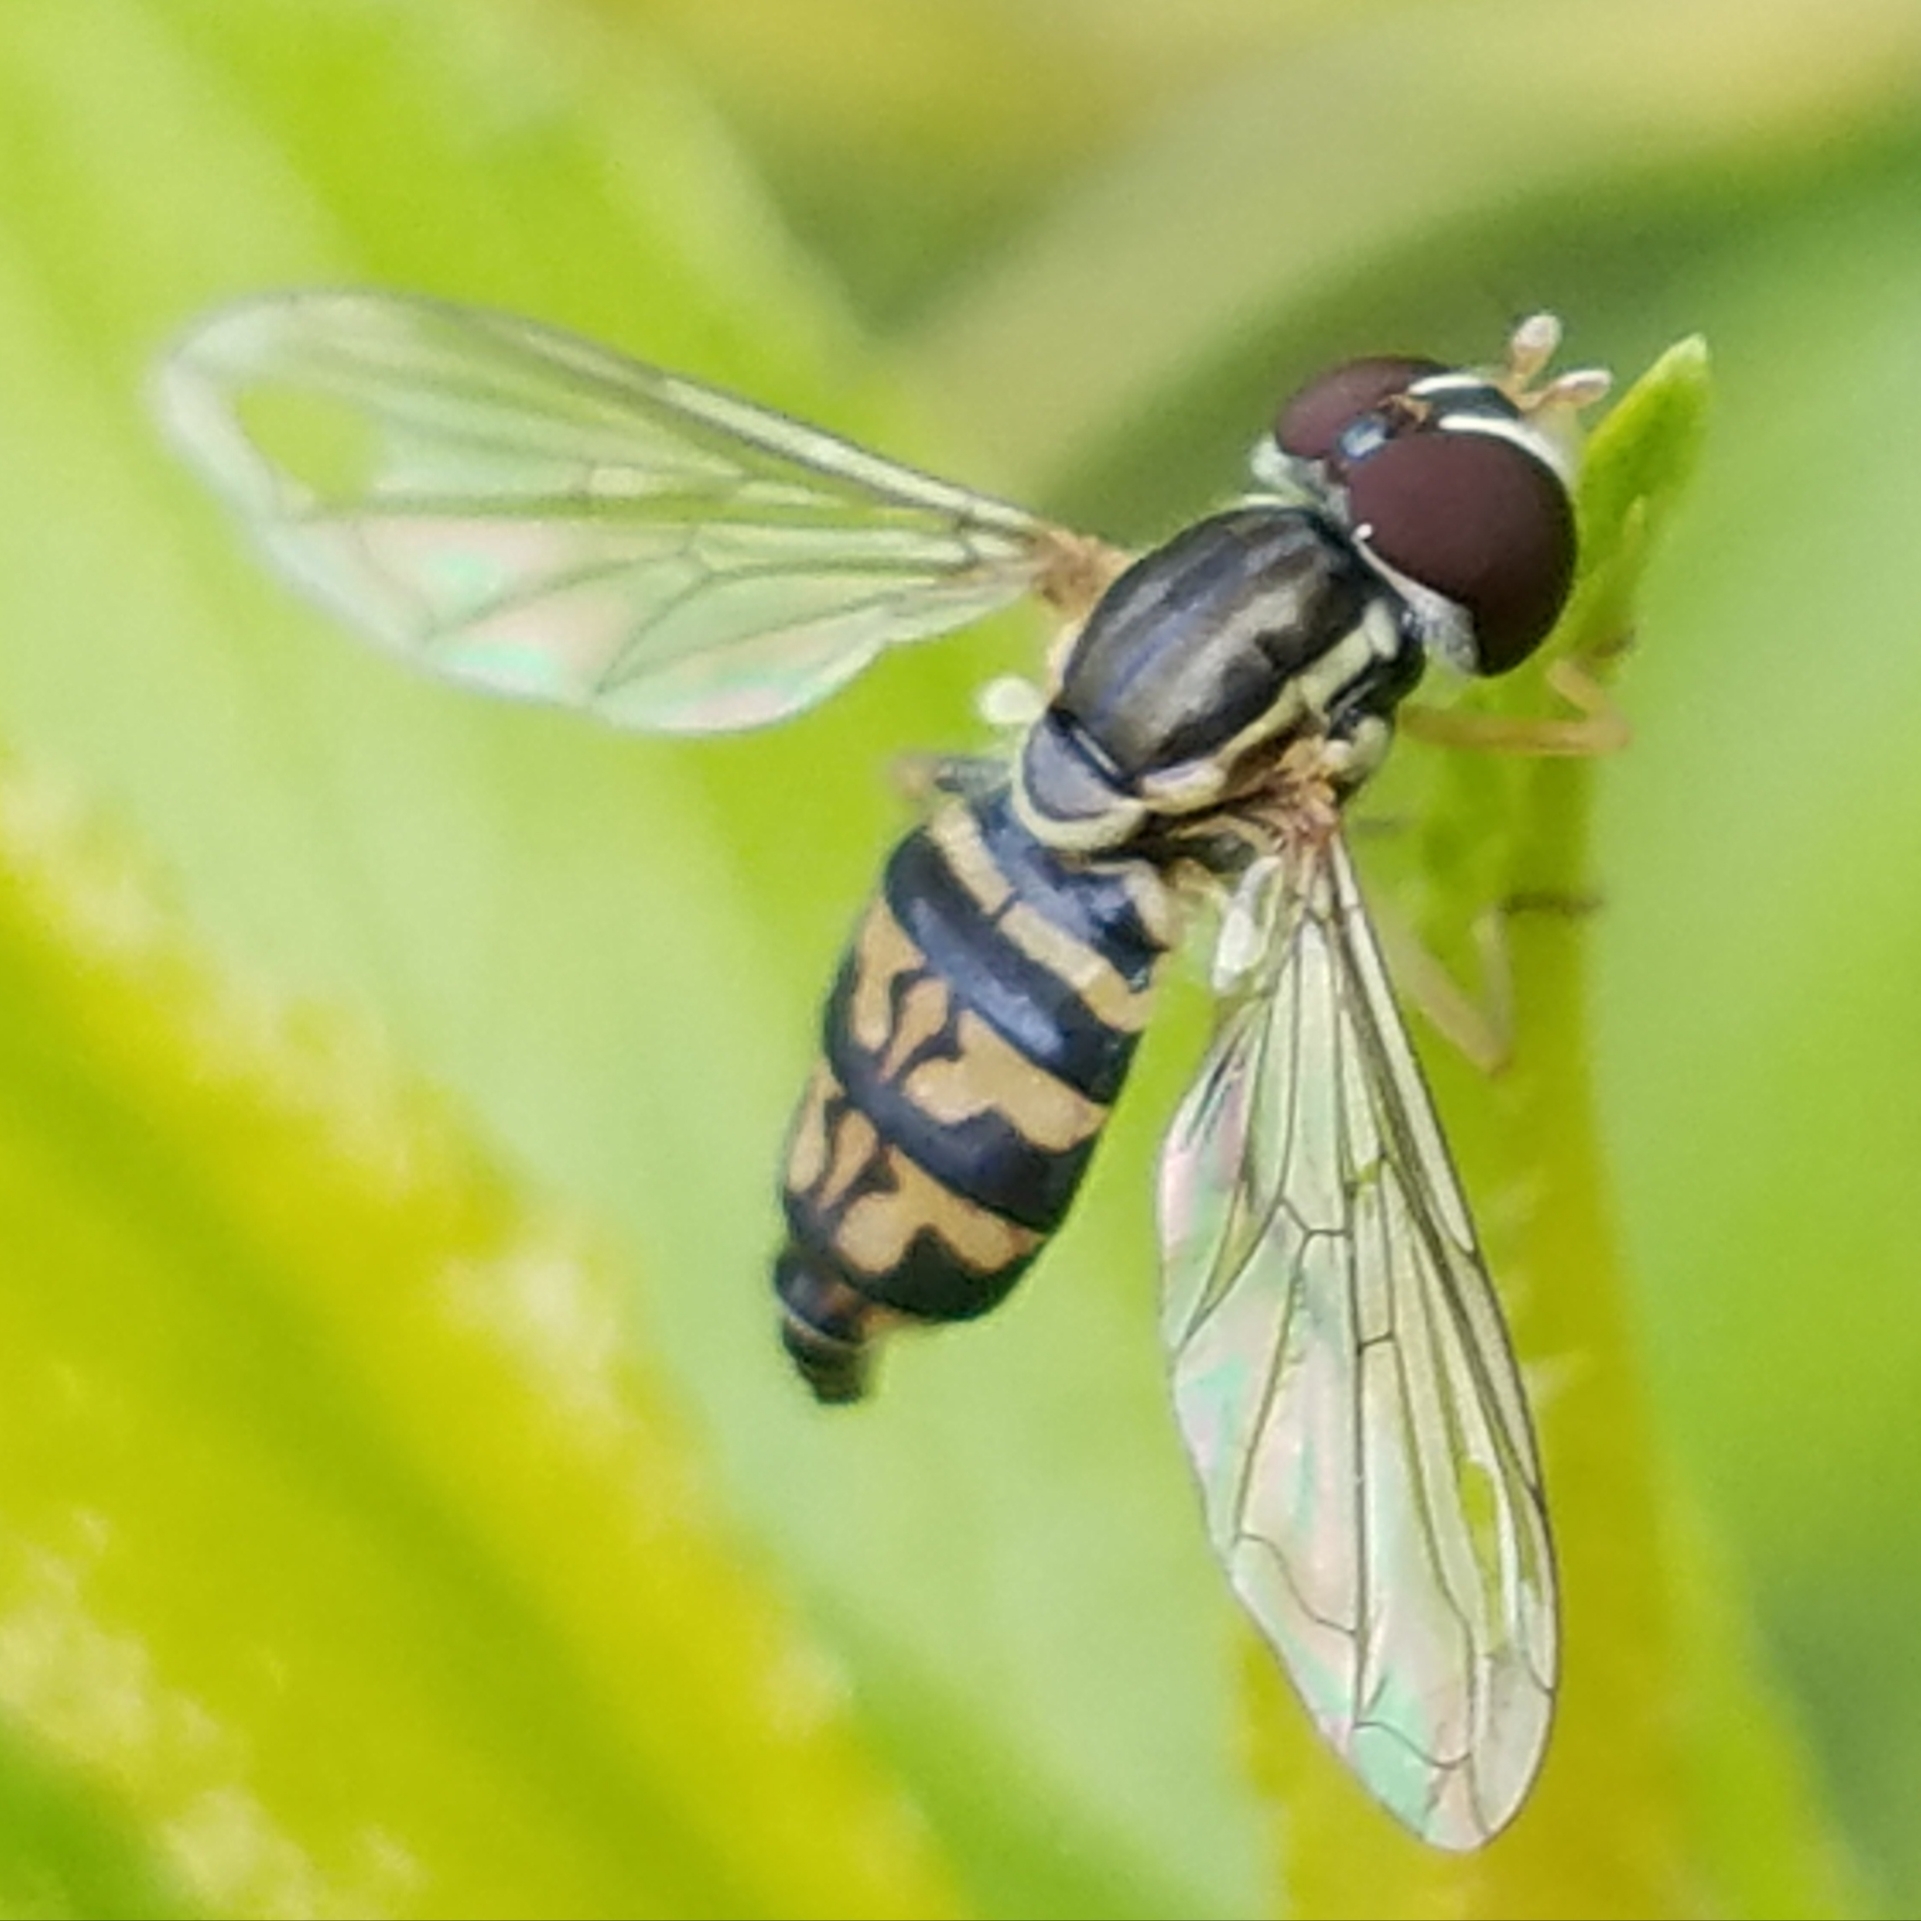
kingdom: Animalia
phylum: Arthropoda
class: Insecta
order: Diptera
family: Syrphidae
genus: Toxomerus
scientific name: Toxomerus geminatus
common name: Eastern calligrapher
